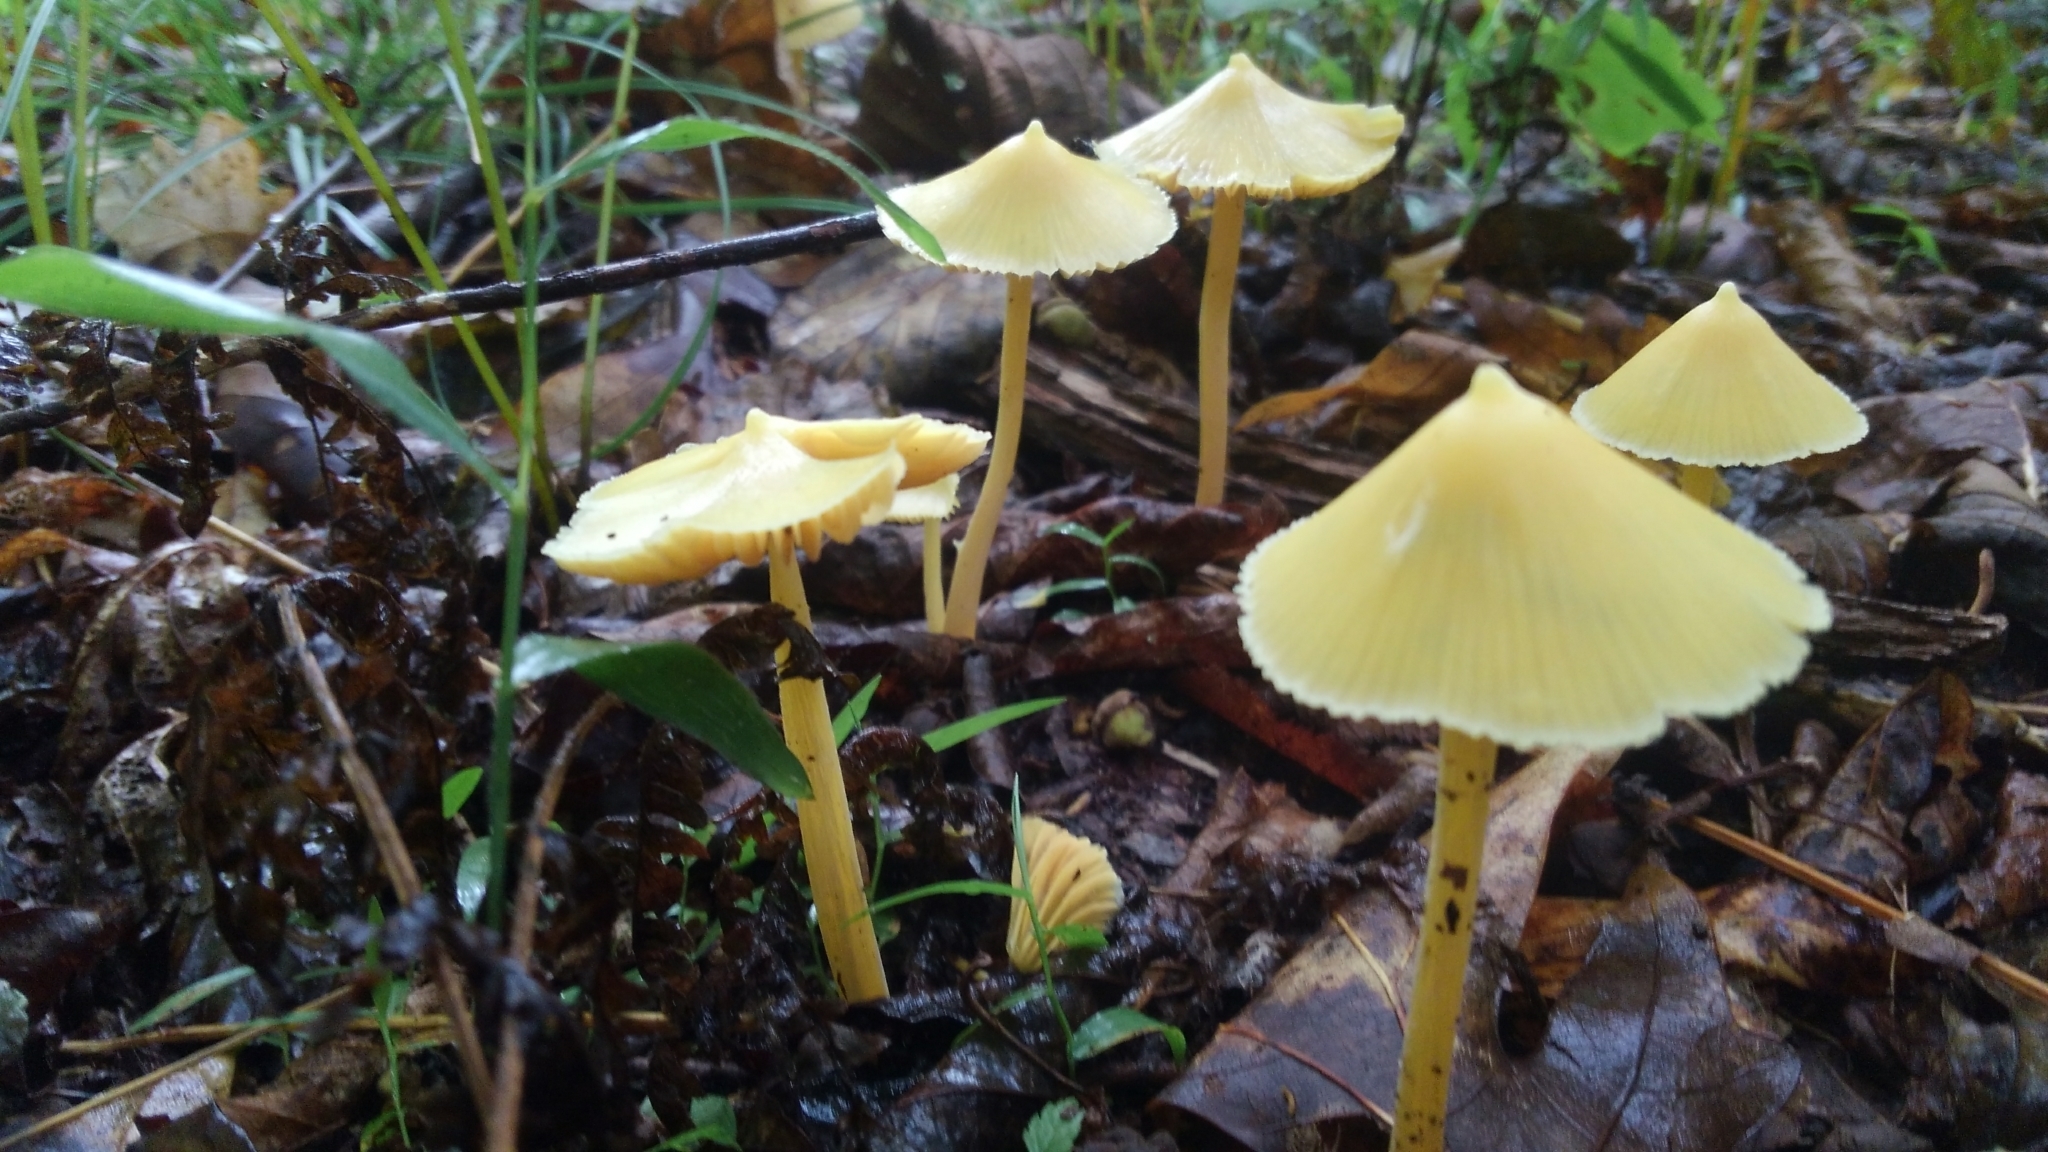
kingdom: Fungi
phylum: Basidiomycota
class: Agaricomycetes
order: Agaricales
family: Entolomataceae
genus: Entoloma
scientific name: Entoloma murrayi
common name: Yellow unicorn entoloma
